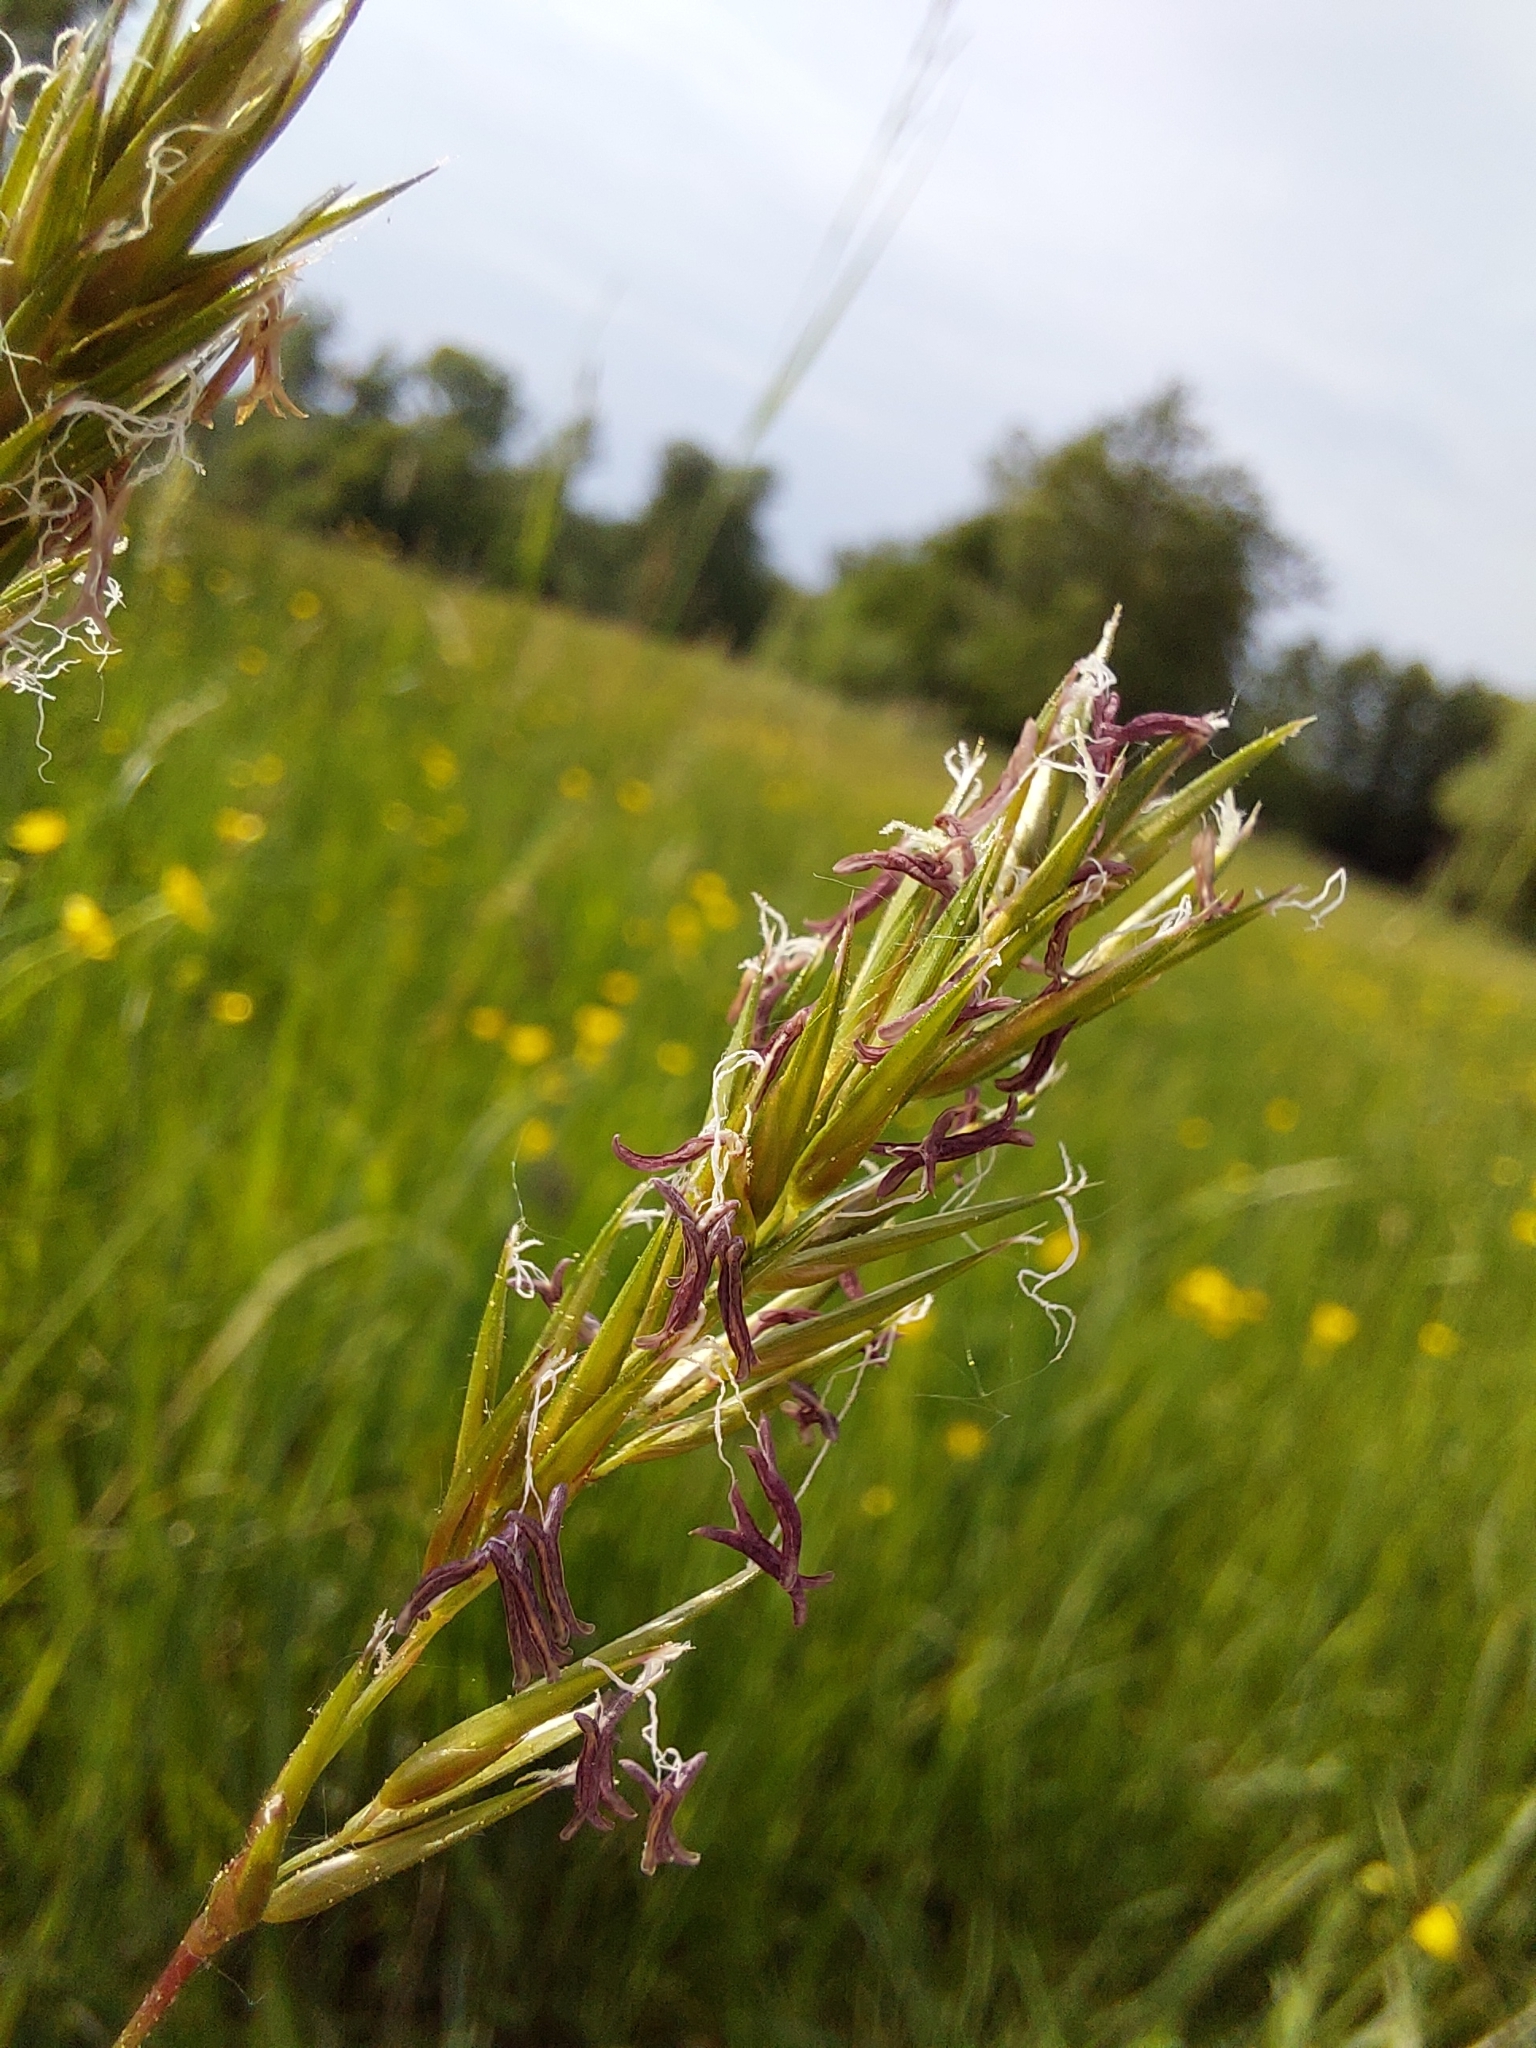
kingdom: Plantae
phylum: Tracheophyta
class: Liliopsida
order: Poales
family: Poaceae
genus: Anthoxanthum
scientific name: Anthoxanthum odoratum
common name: Sweet vernalgrass
